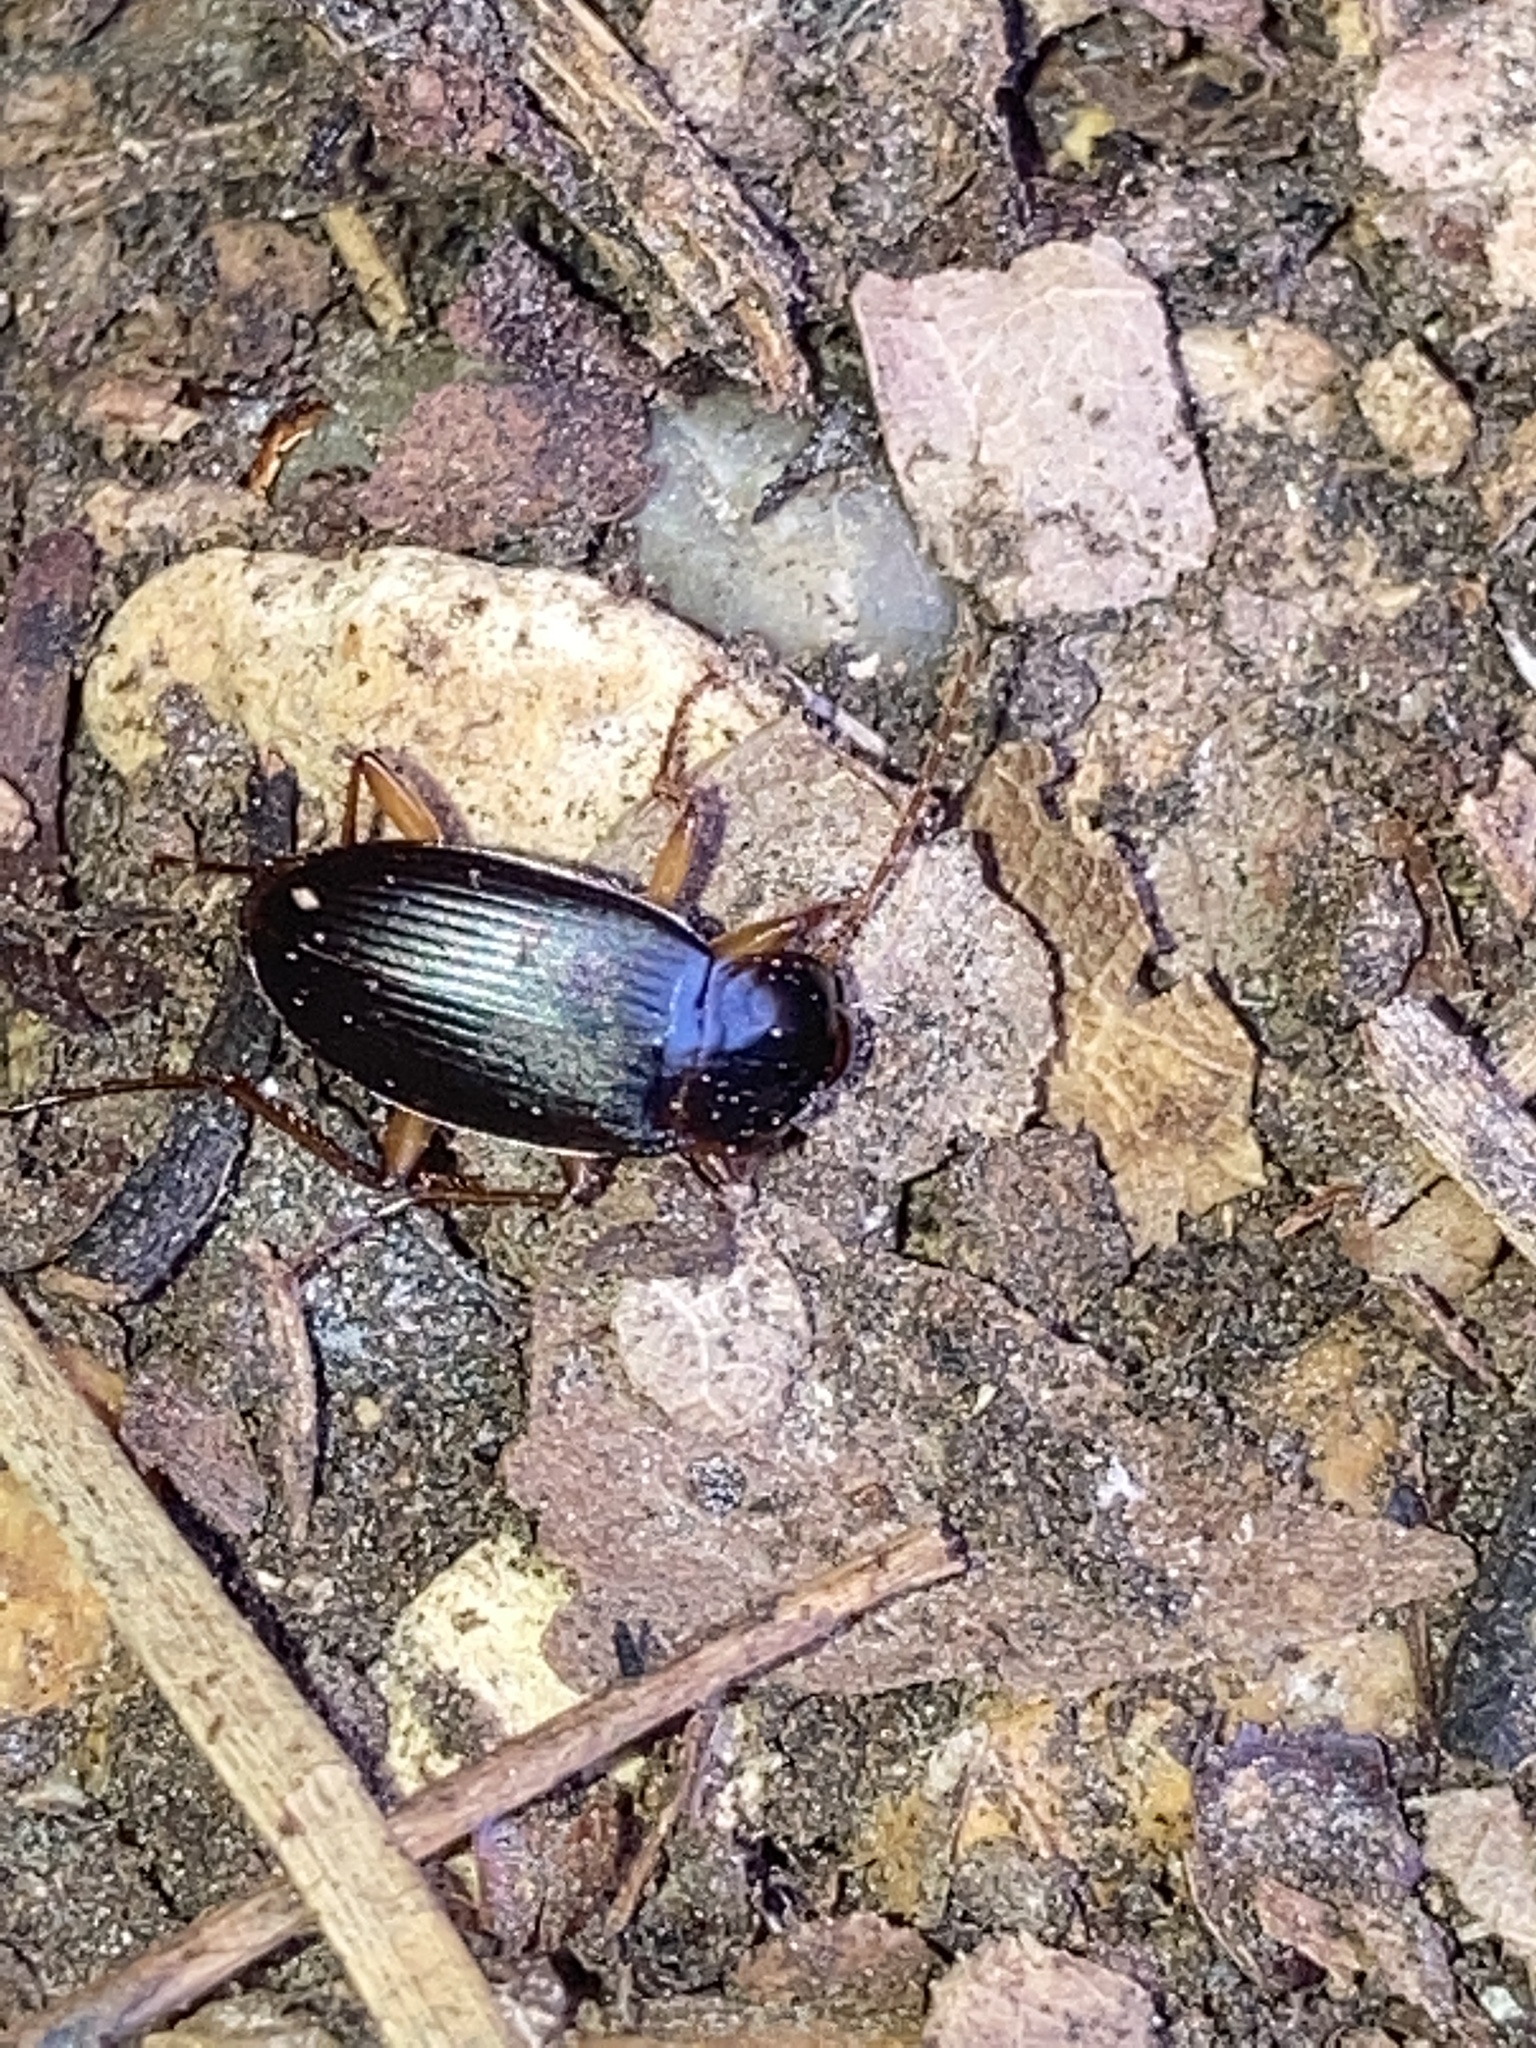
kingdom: Animalia
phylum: Arthropoda
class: Insecta
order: Coleoptera
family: Carabidae
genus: Calathus
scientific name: Calathus opaculus
